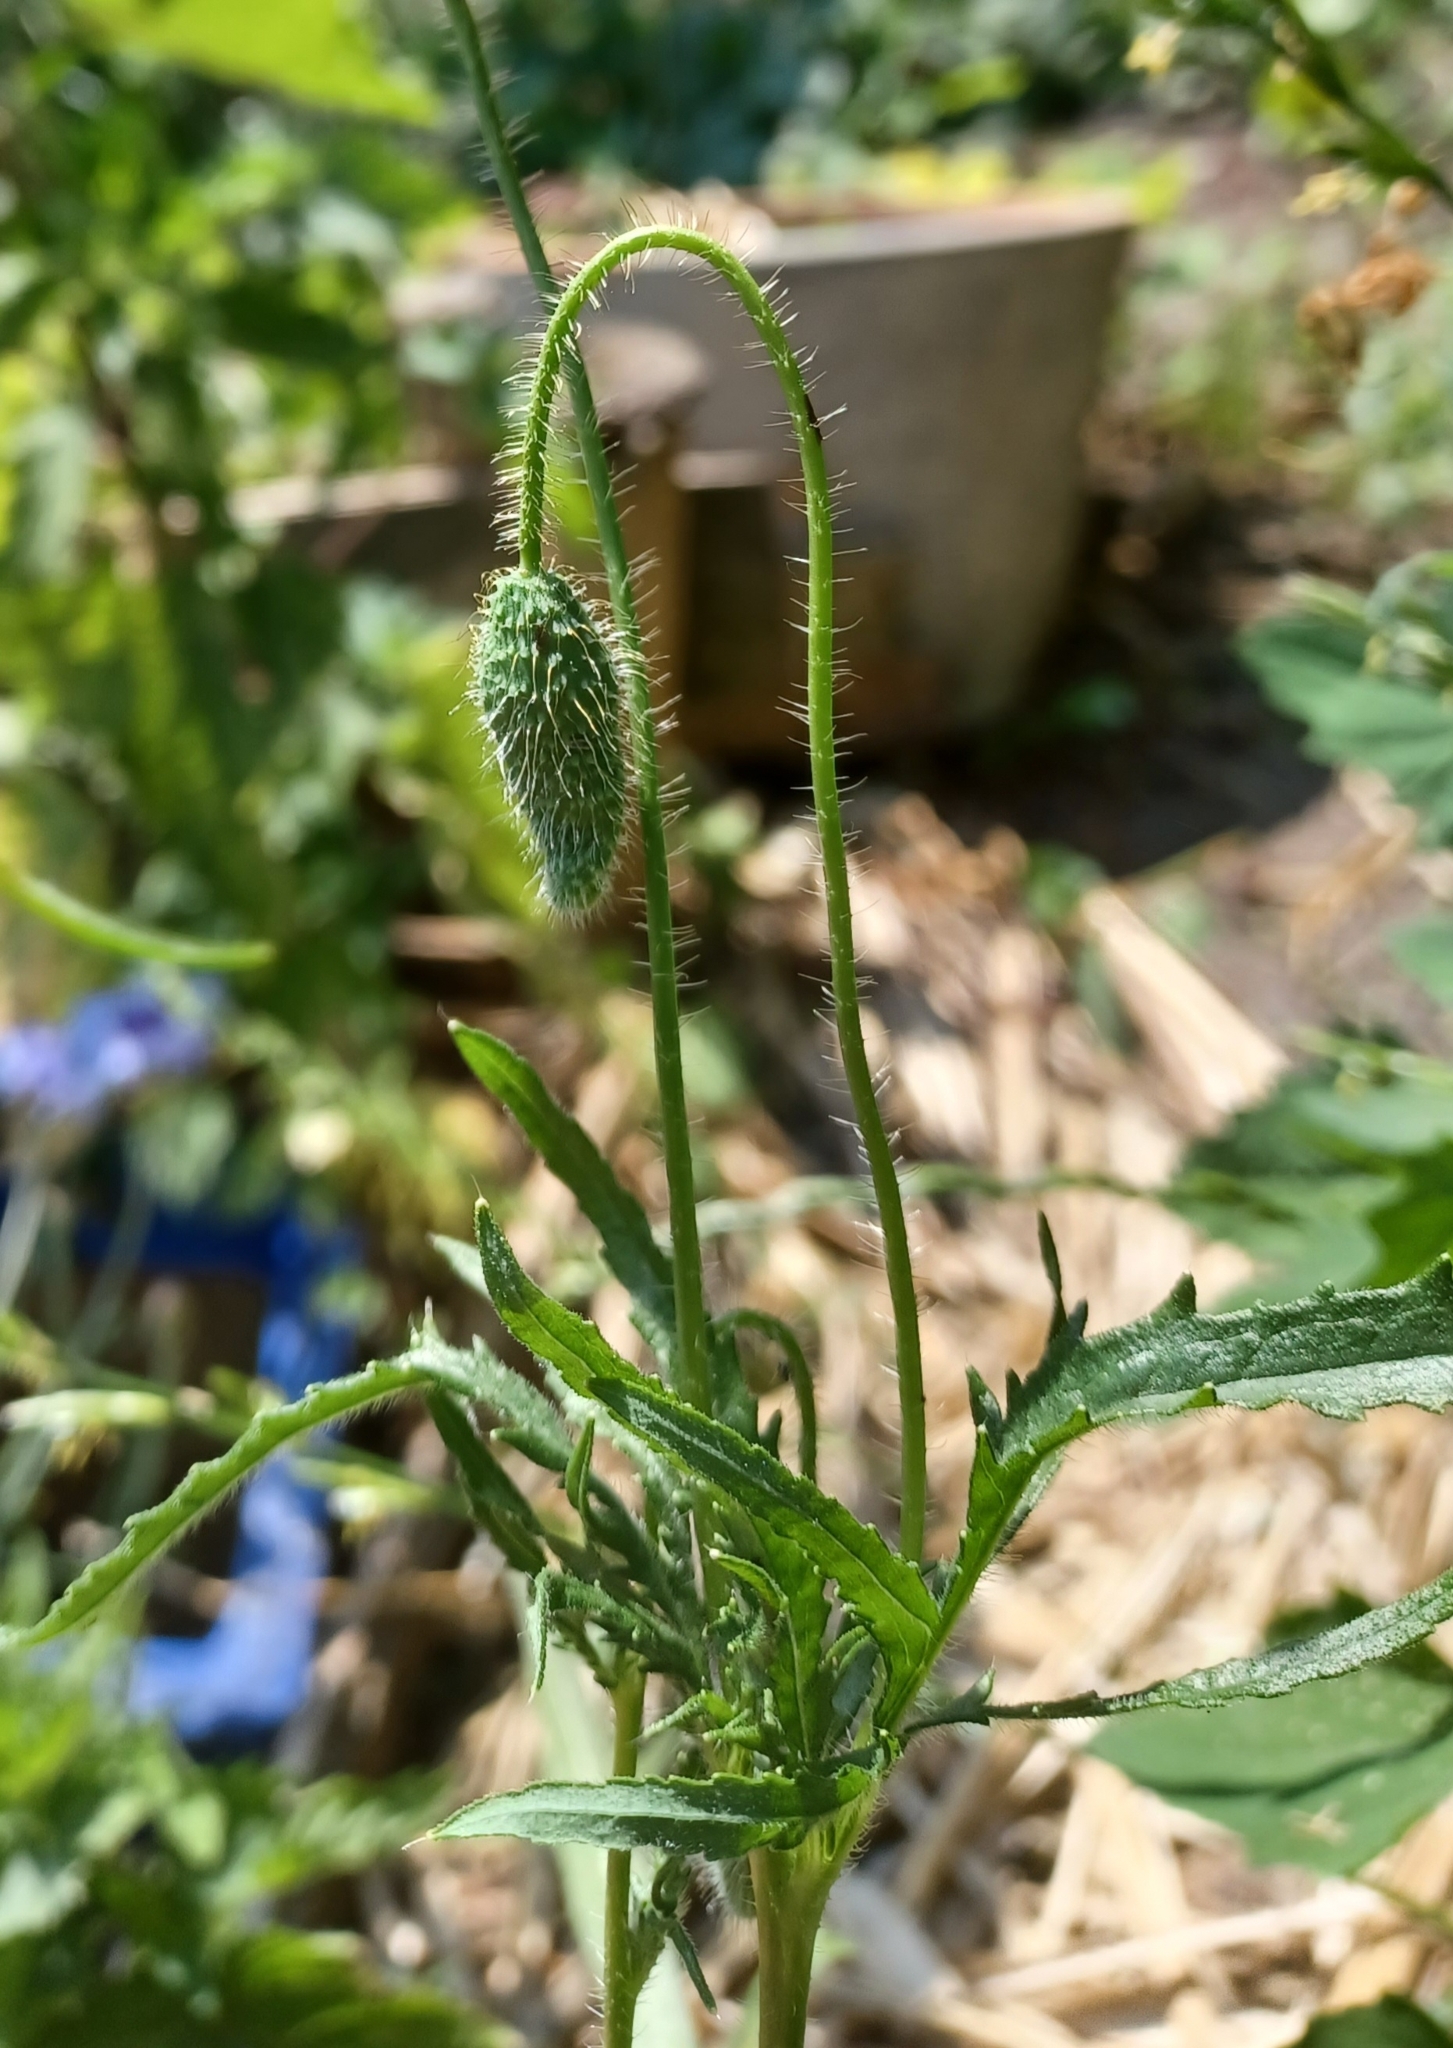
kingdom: Plantae
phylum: Tracheophyta
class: Magnoliopsida
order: Ranunculales
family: Papaveraceae
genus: Papaver
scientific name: Papaver rhoeas
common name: Corn poppy
